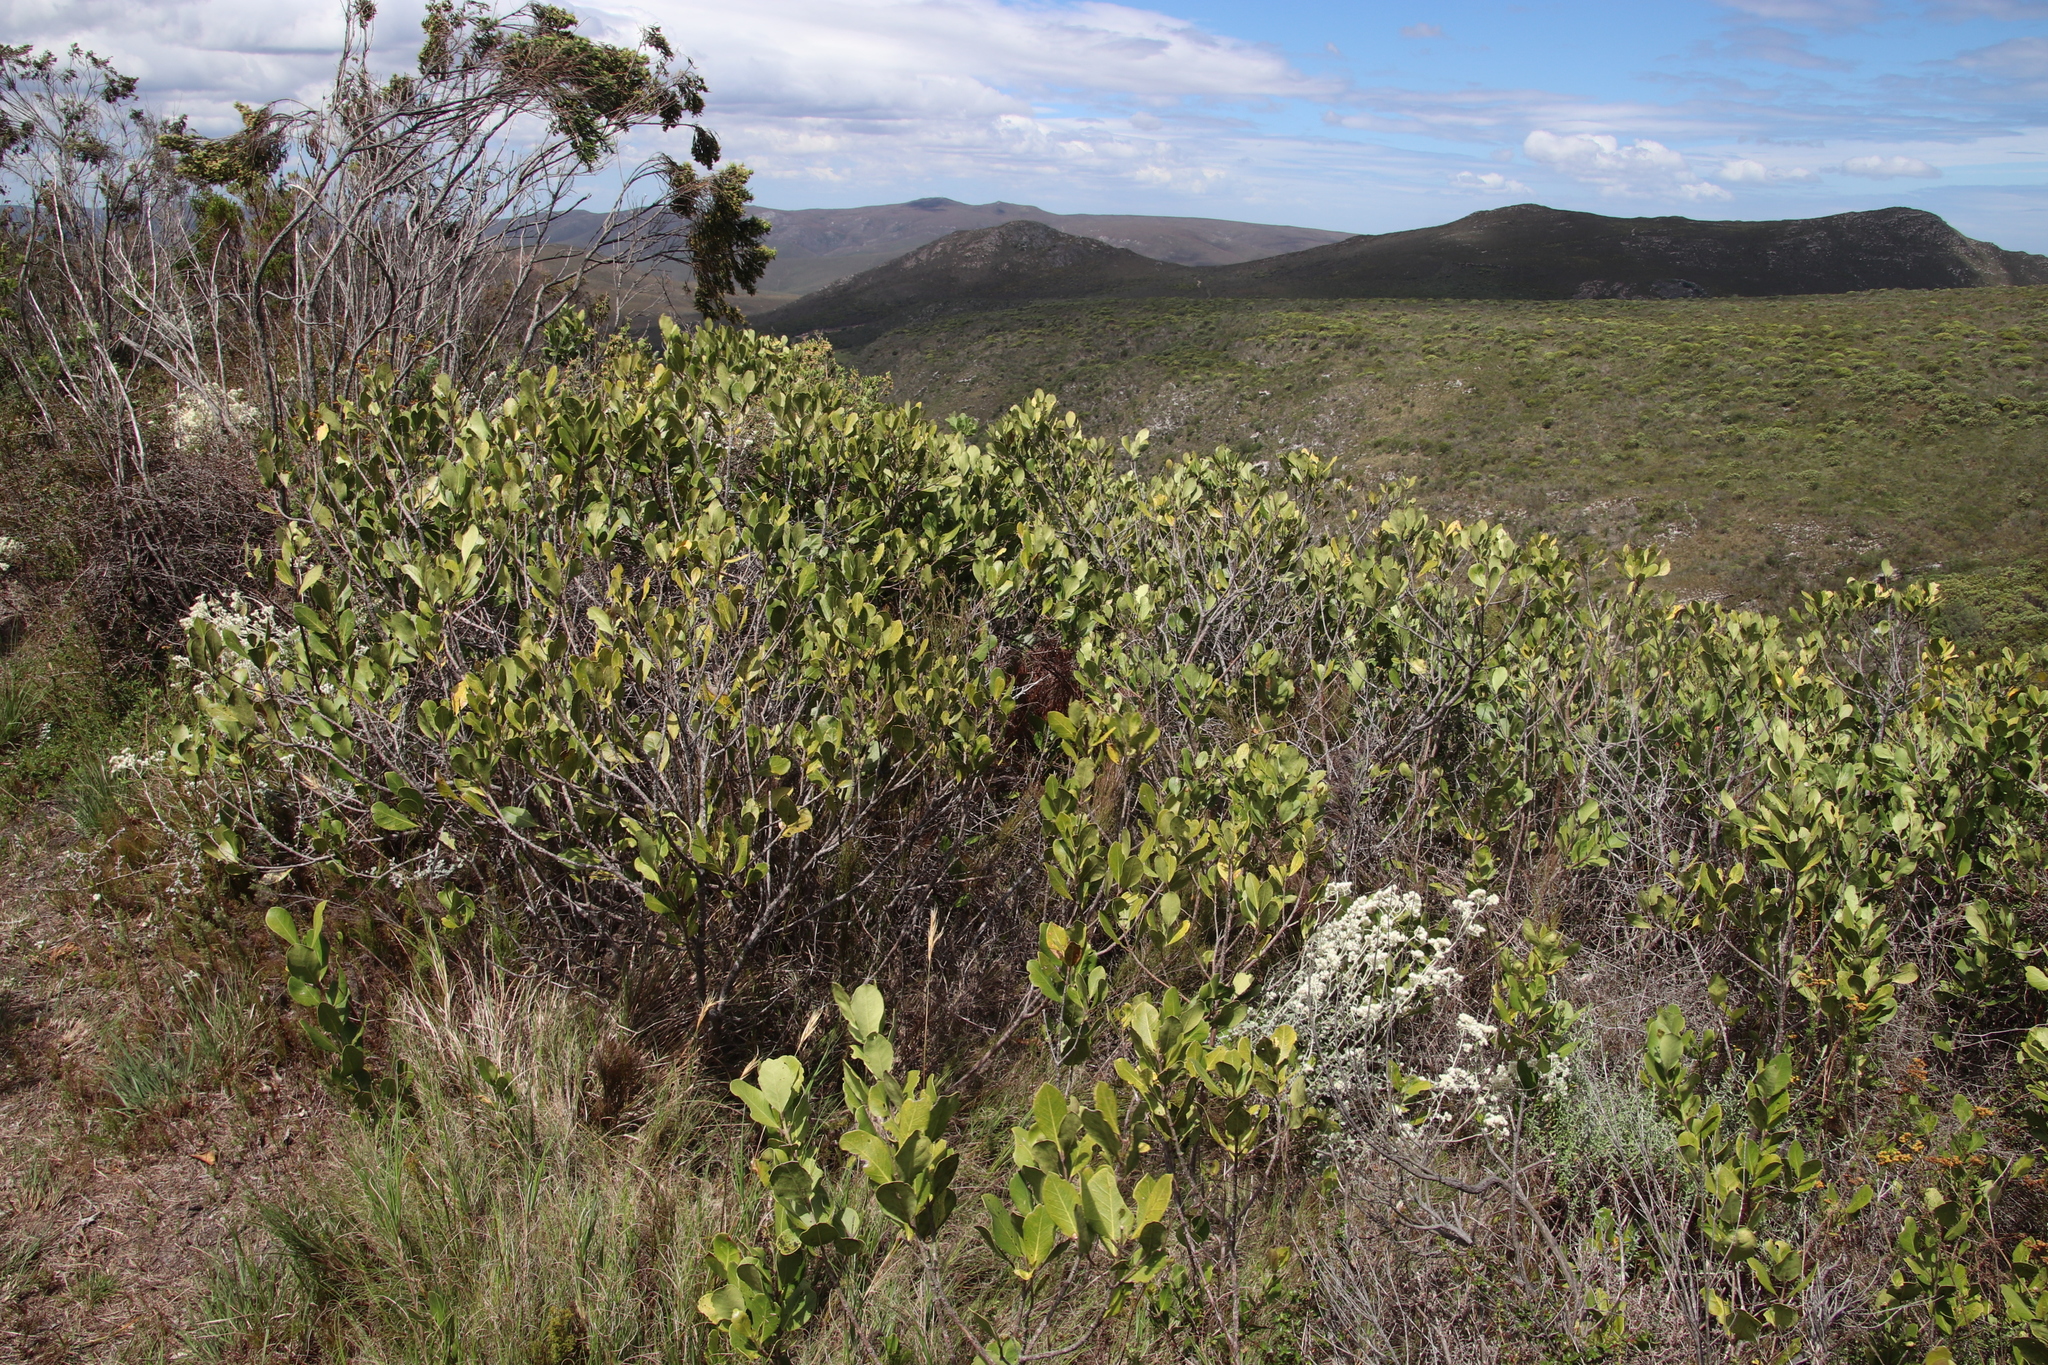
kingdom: Plantae
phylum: Tracheophyta
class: Magnoliopsida
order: Lamiales
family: Oleaceae
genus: Olea
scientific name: Olea capensis
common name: Black ironwood
